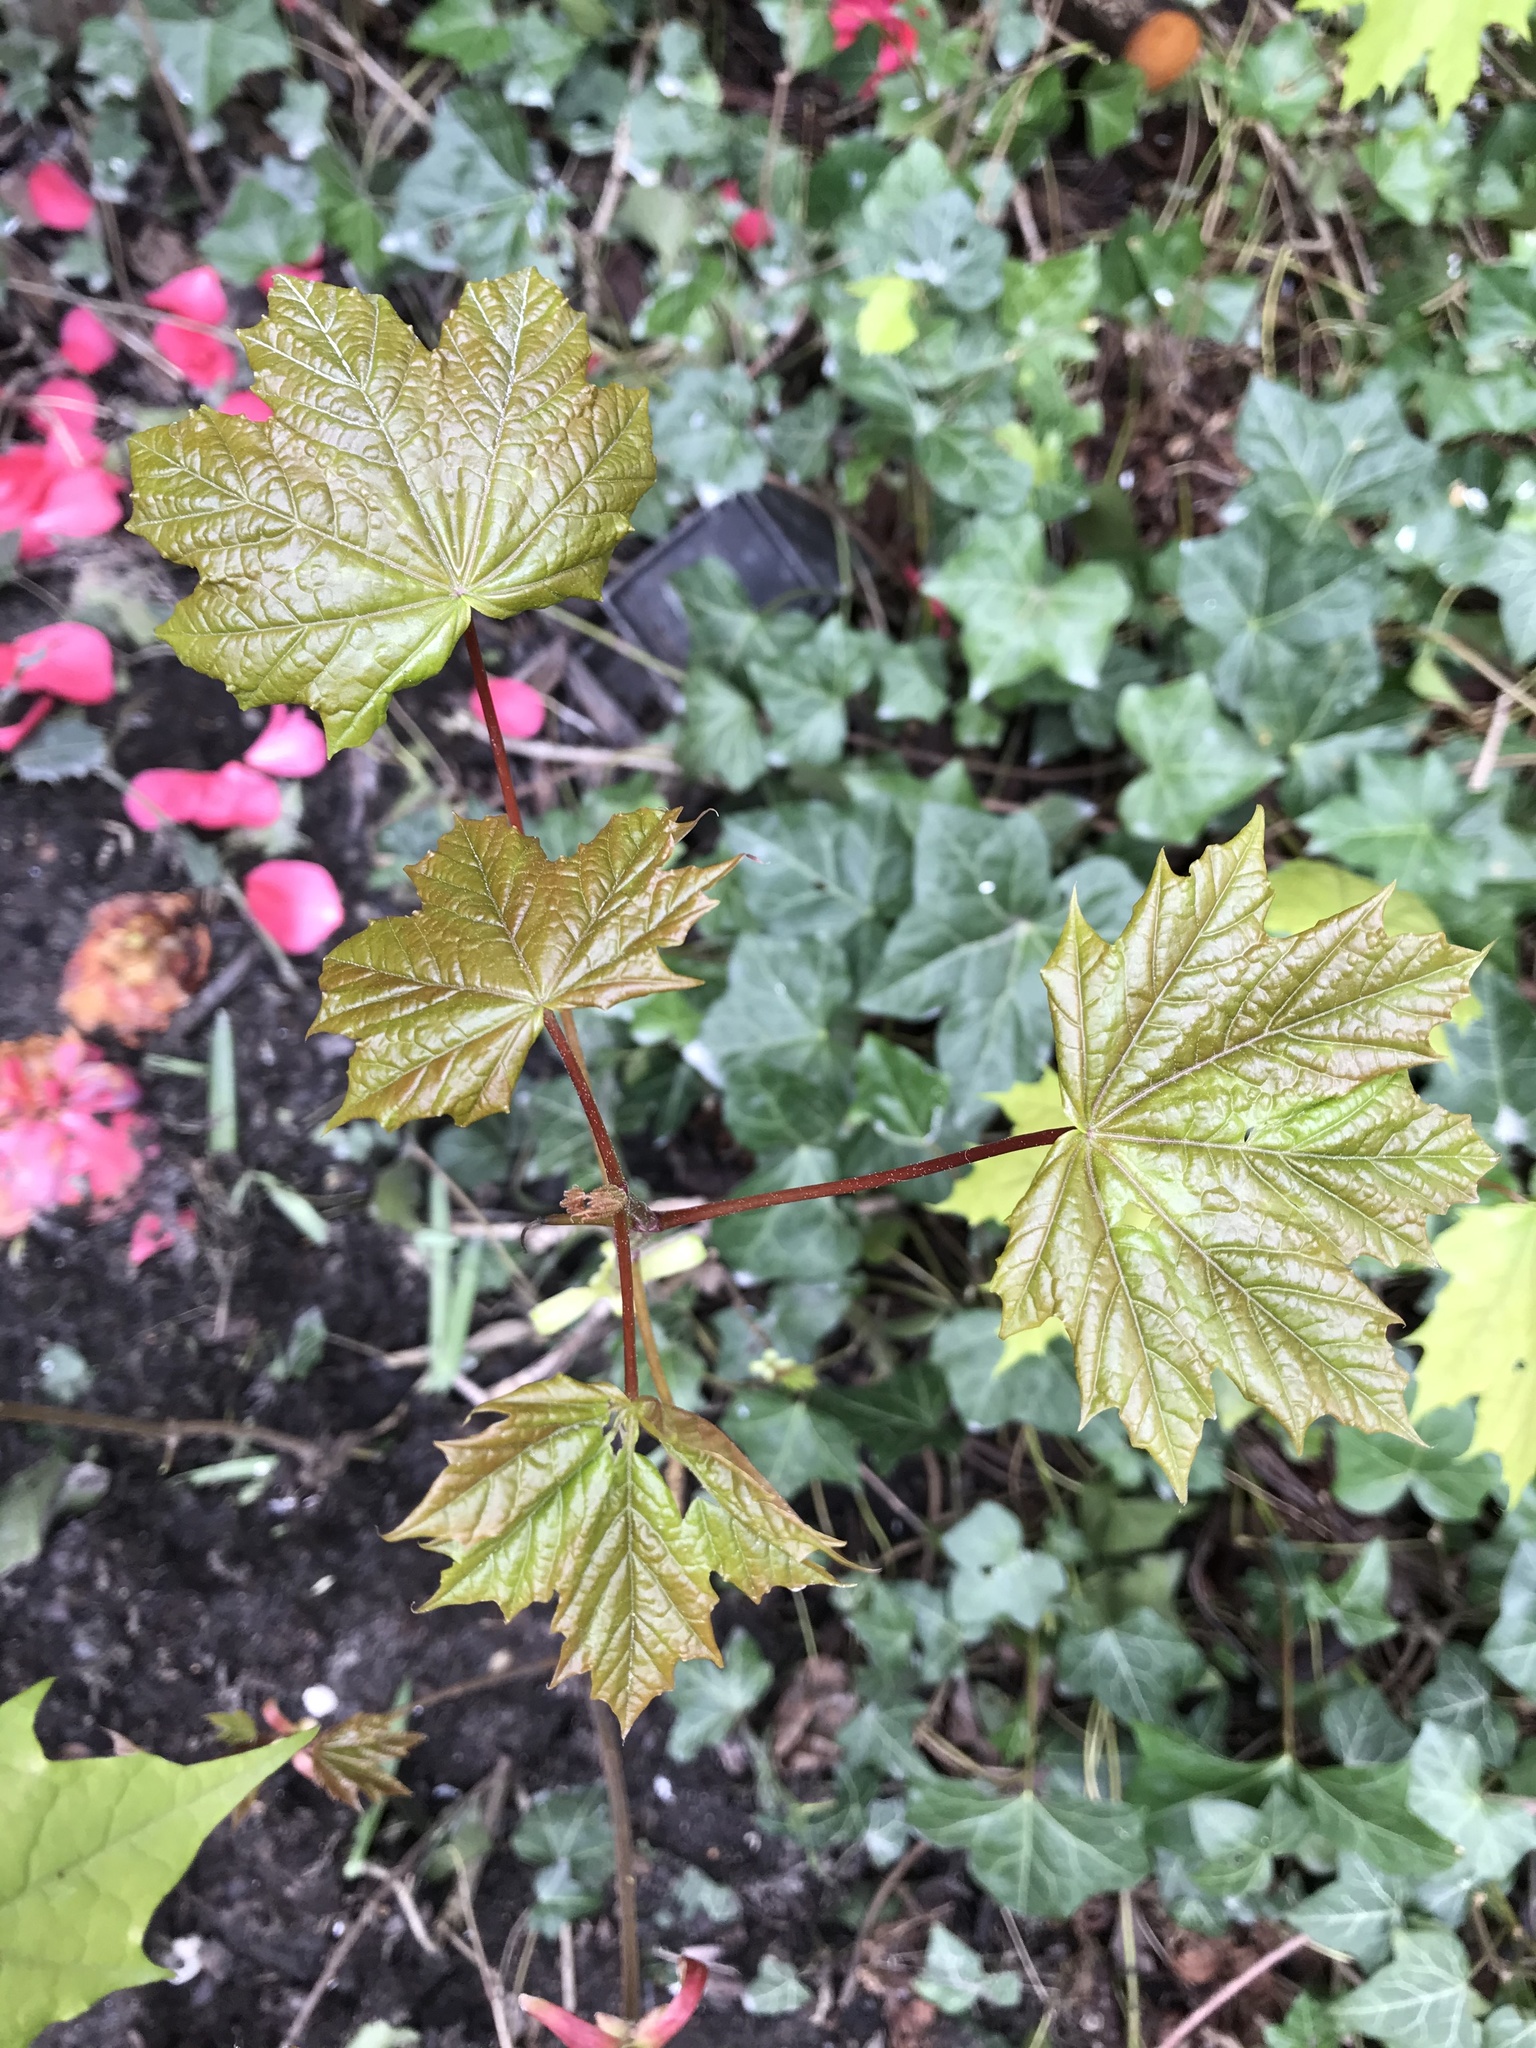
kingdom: Plantae
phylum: Tracheophyta
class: Magnoliopsida
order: Sapindales
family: Sapindaceae
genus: Acer
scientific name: Acer platanoides
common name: Norway maple
